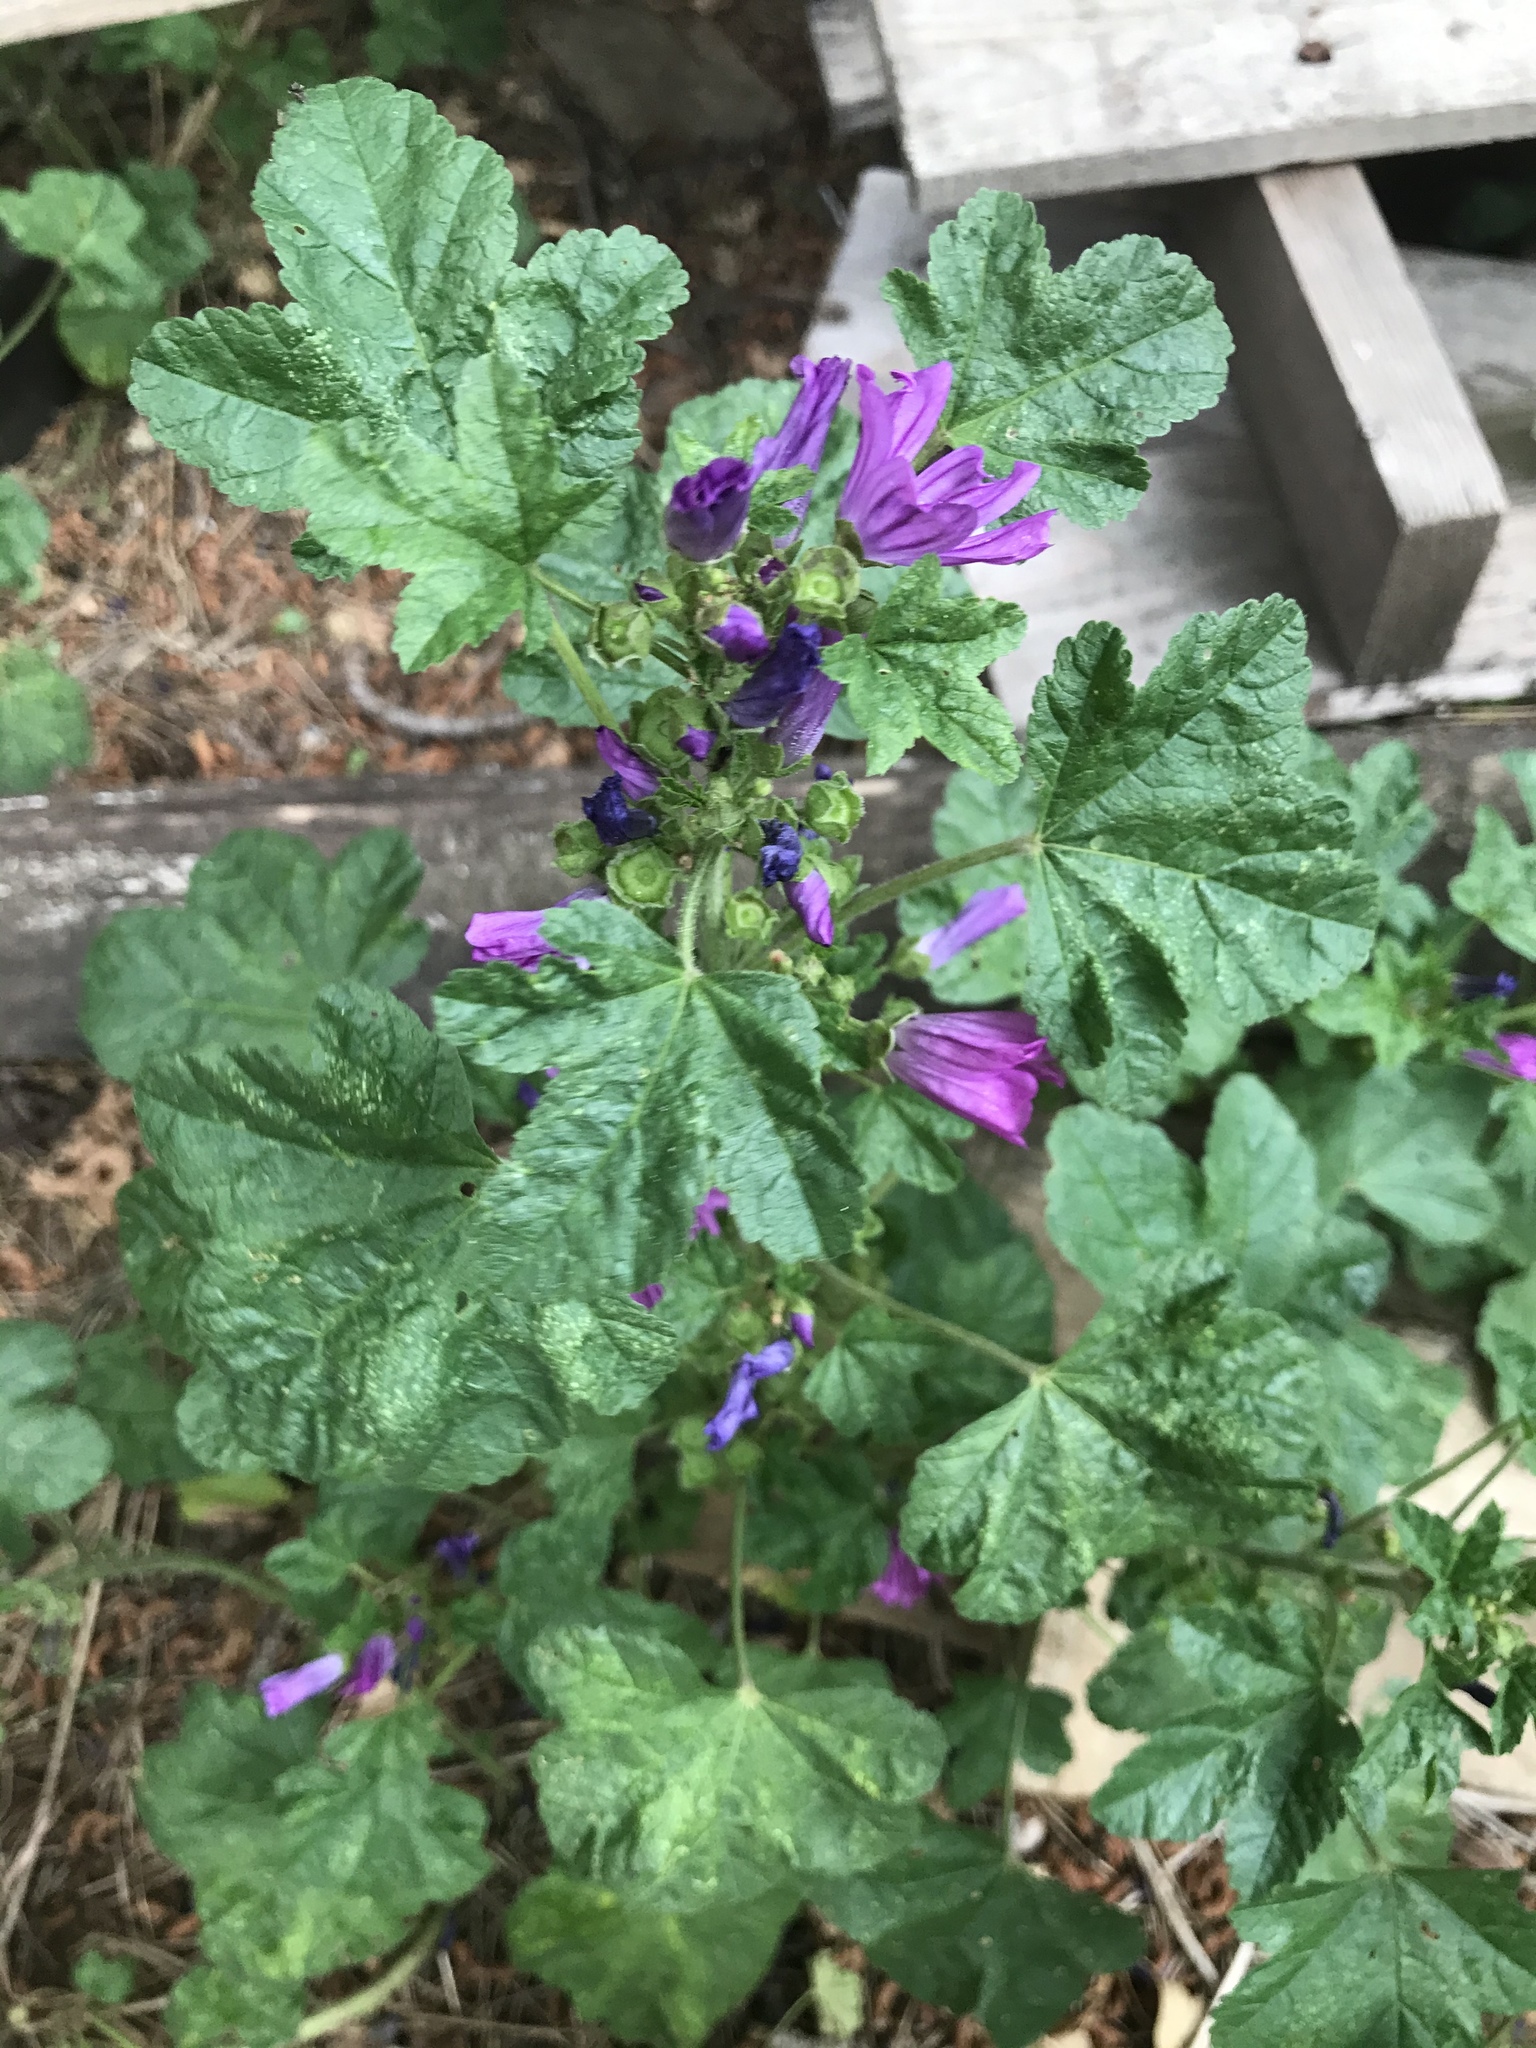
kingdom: Plantae
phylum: Tracheophyta
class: Magnoliopsida
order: Malvales
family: Malvaceae
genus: Malva
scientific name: Malva sylvestris
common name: Common mallow
